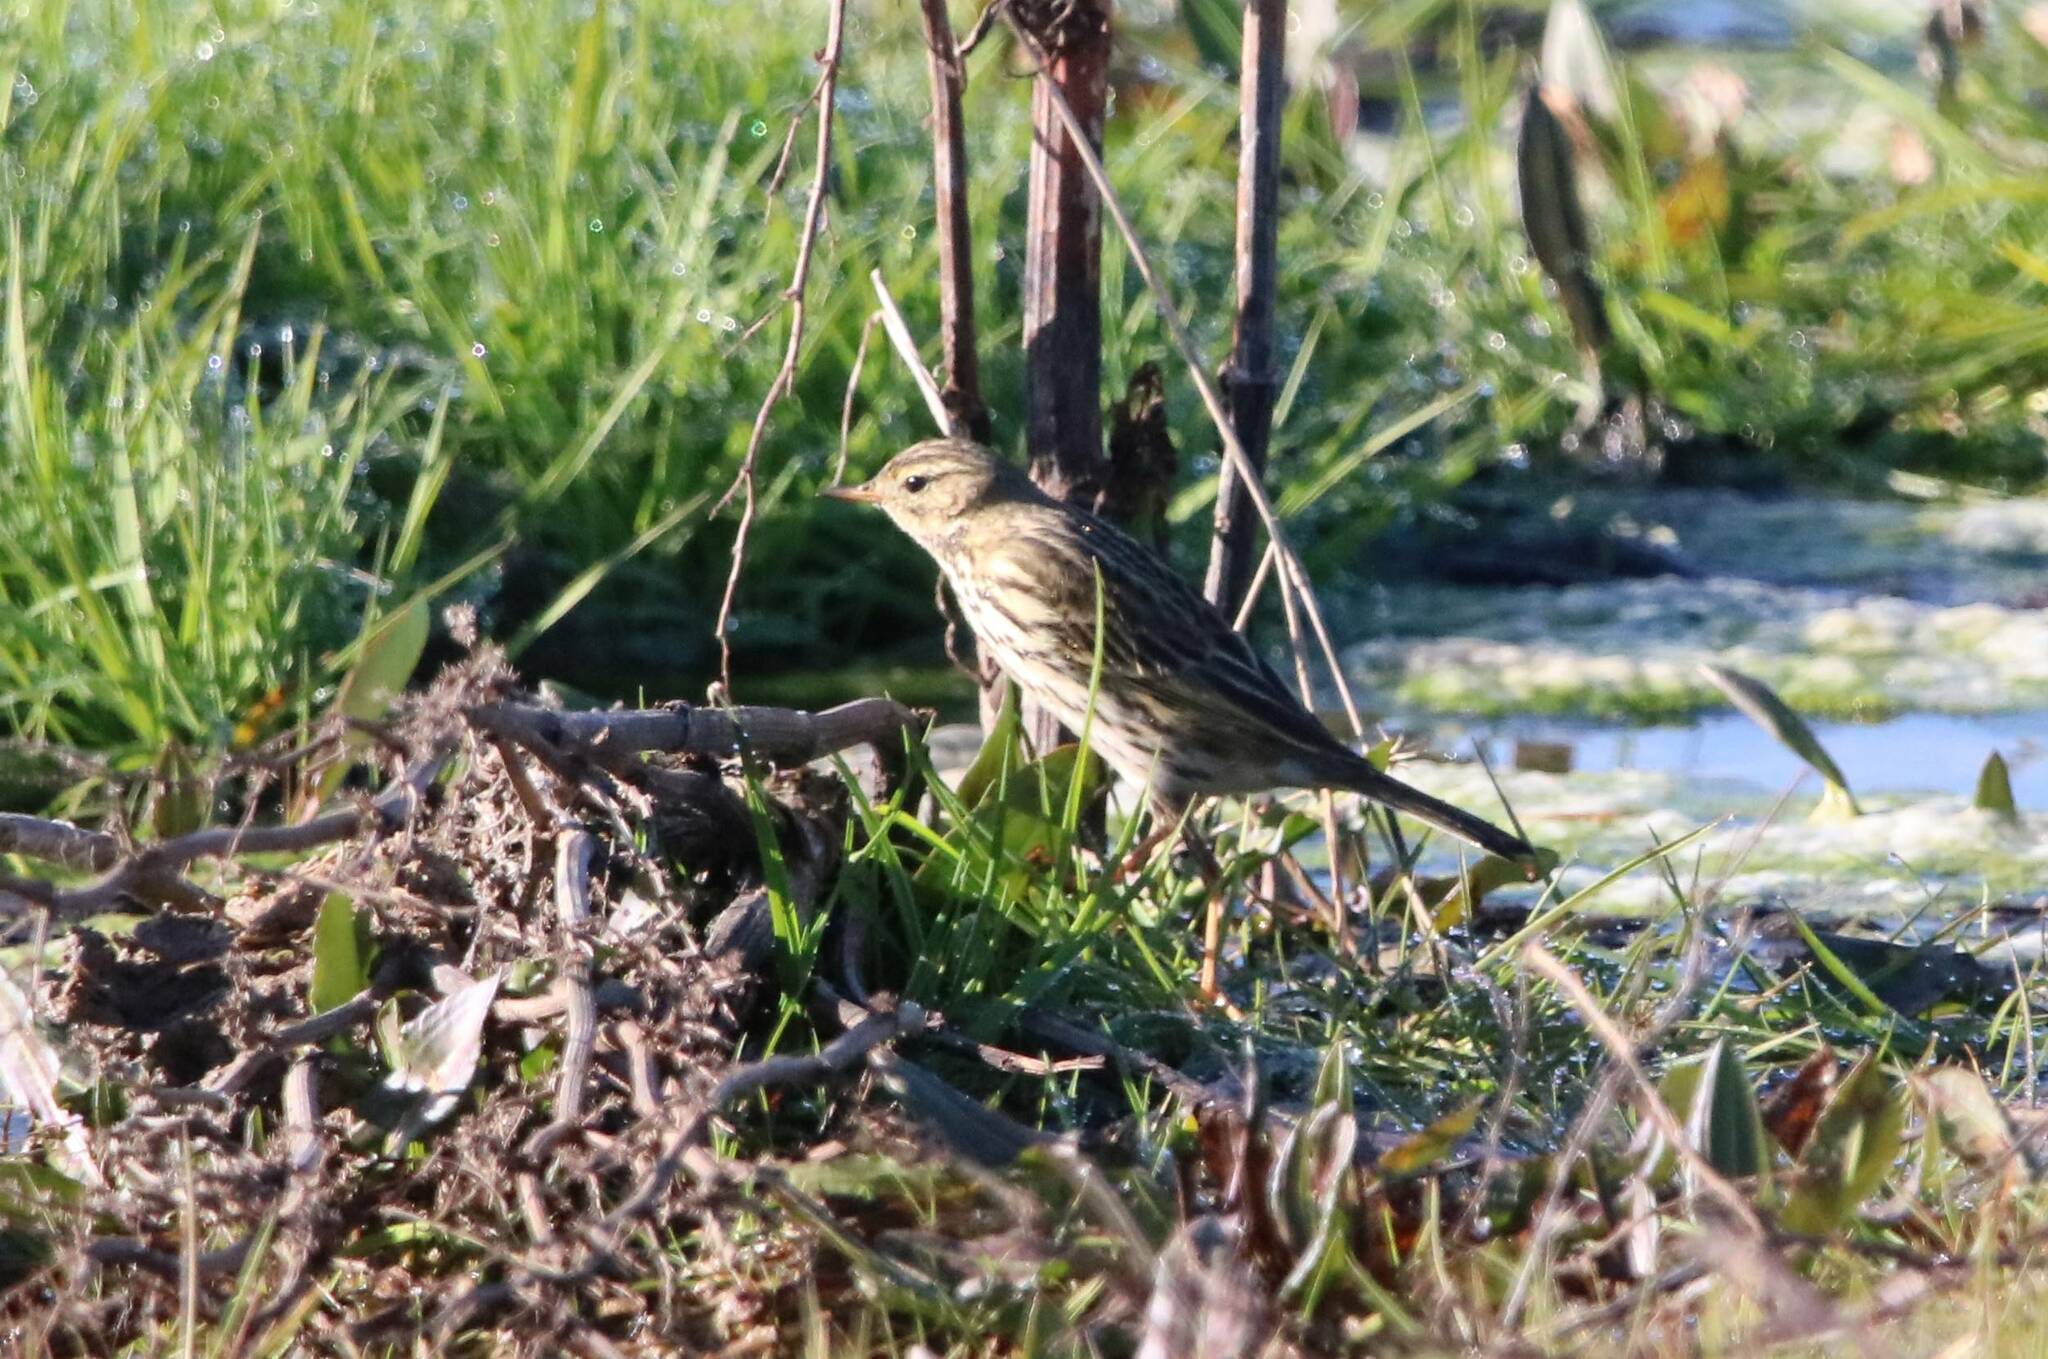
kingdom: Animalia
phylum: Chordata
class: Aves
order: Passeriformes
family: Motacillidae
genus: Anthus
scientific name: Anthus pratensis
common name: Meadow pipit
